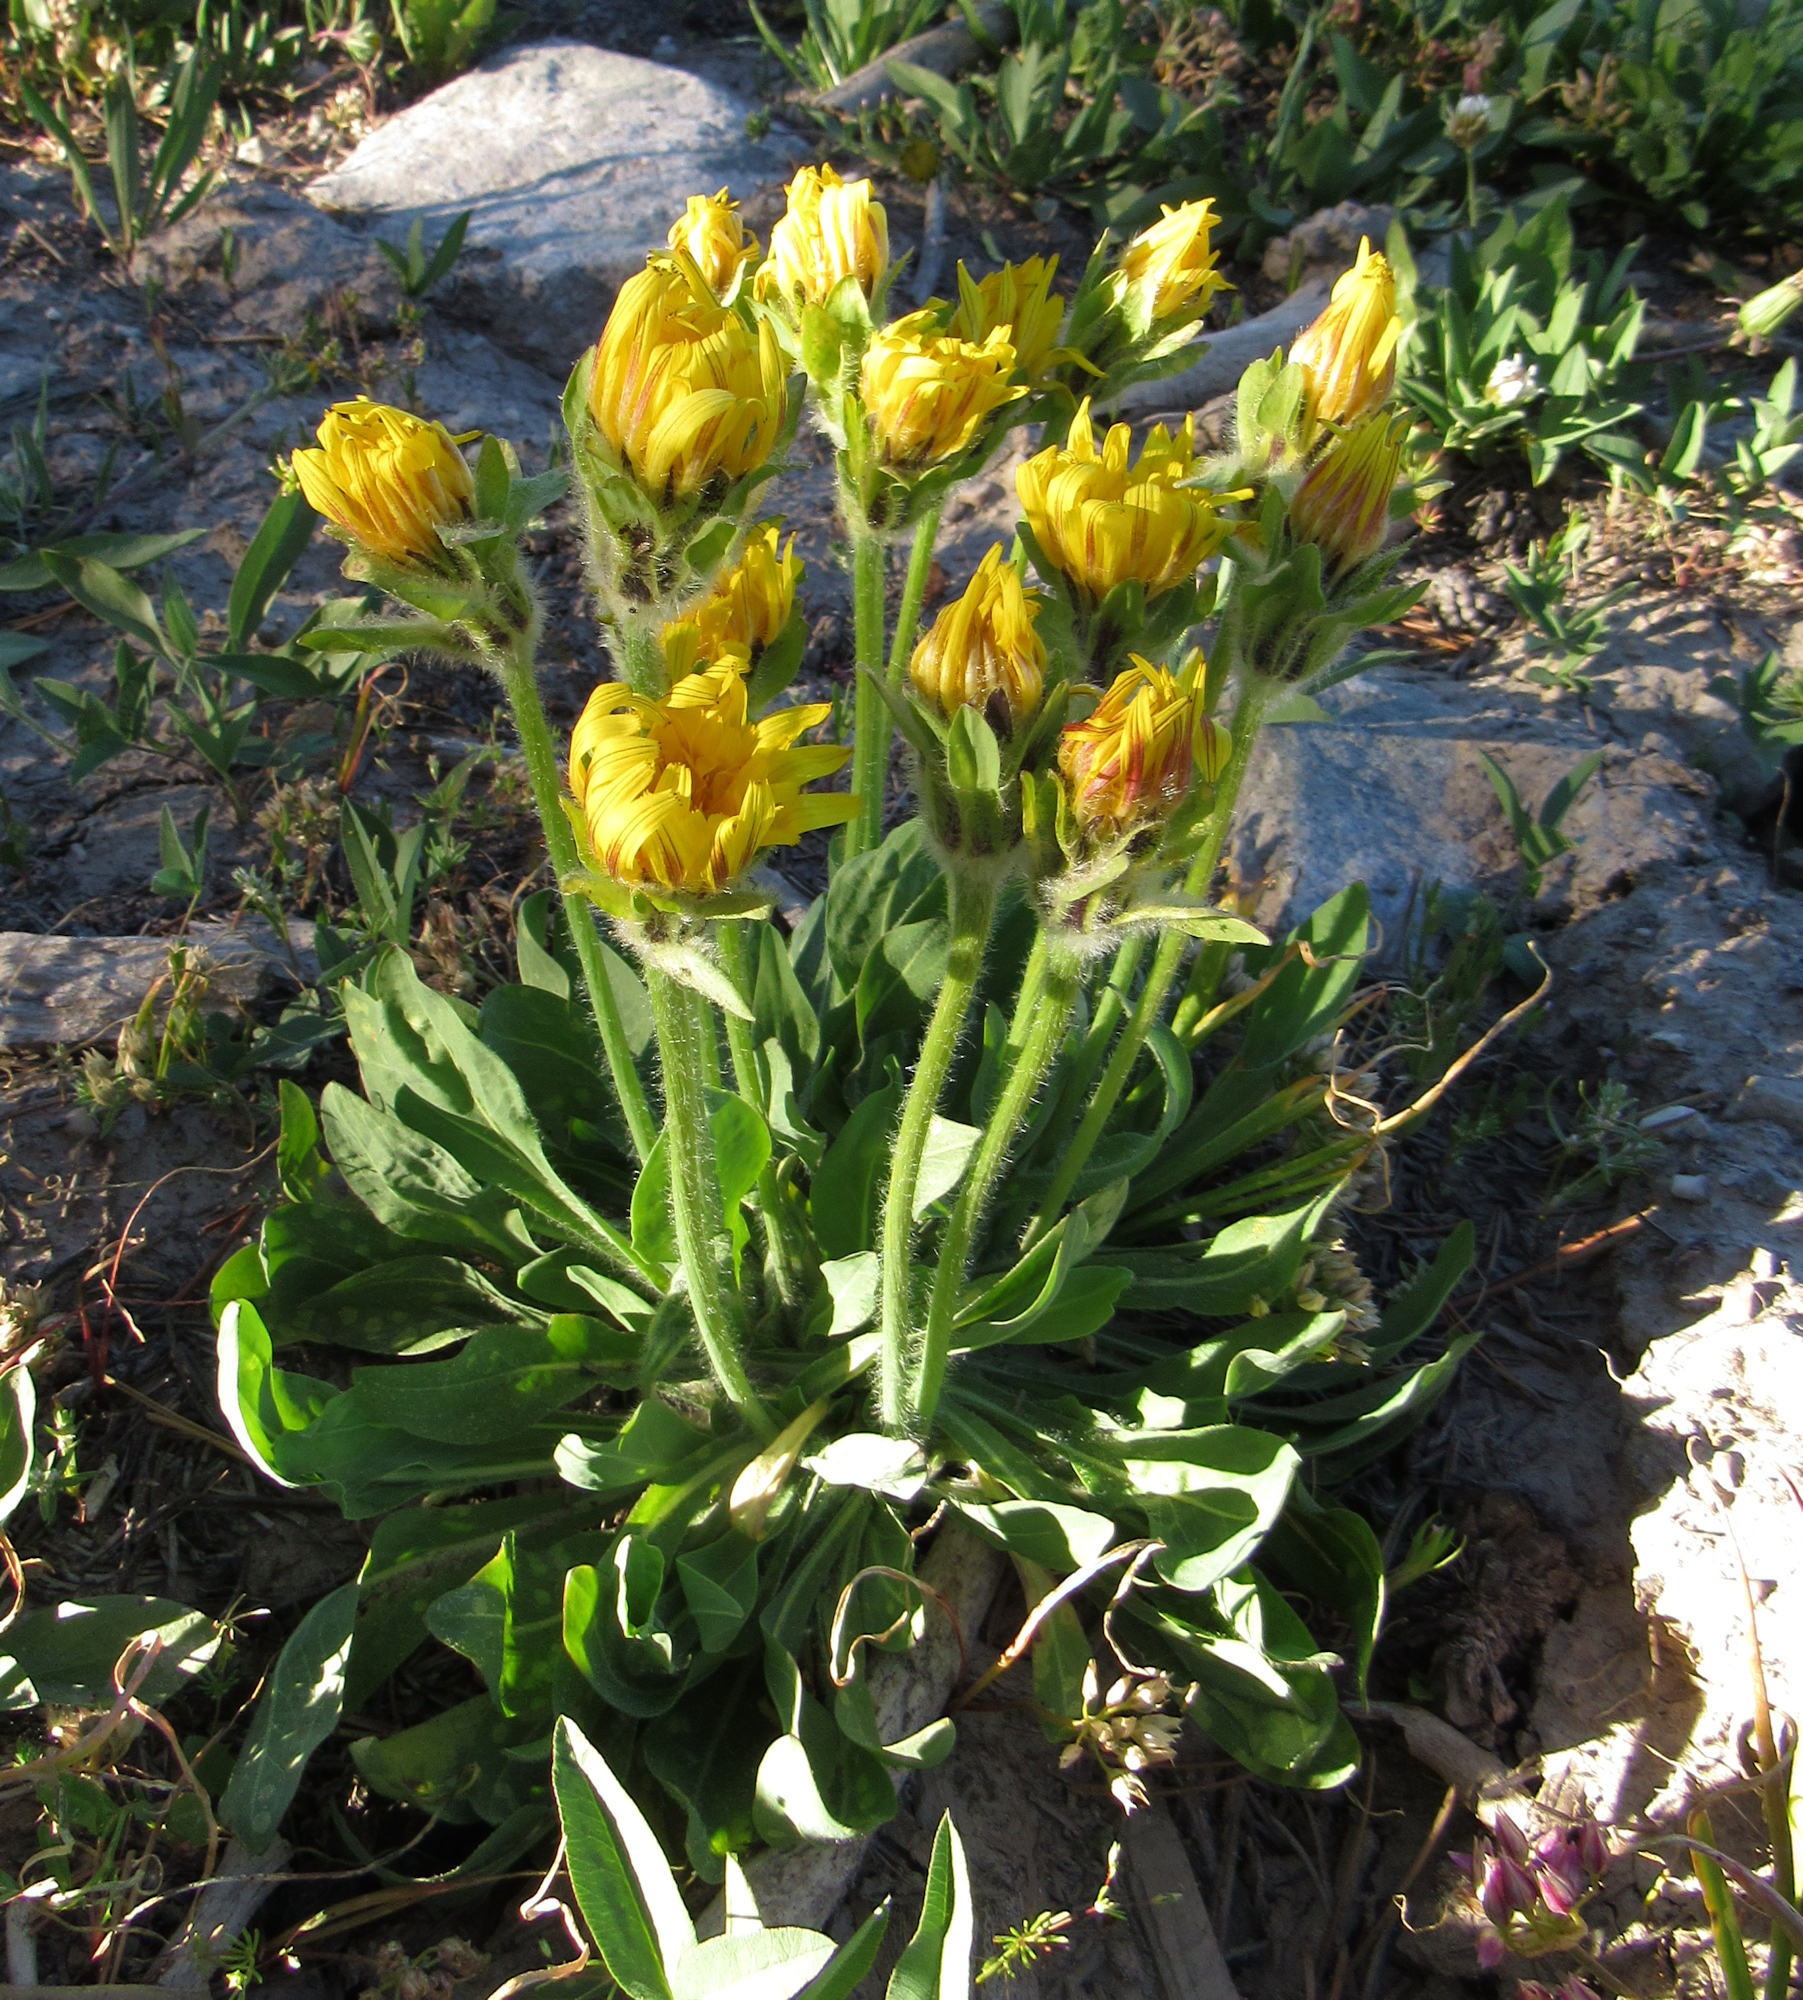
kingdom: Plantae
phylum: Tracheophyta
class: Magnoliopsida
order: Asterales
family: Asteraceae
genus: Agoseris
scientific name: Agoseris glauca
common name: Prairie agoseris
